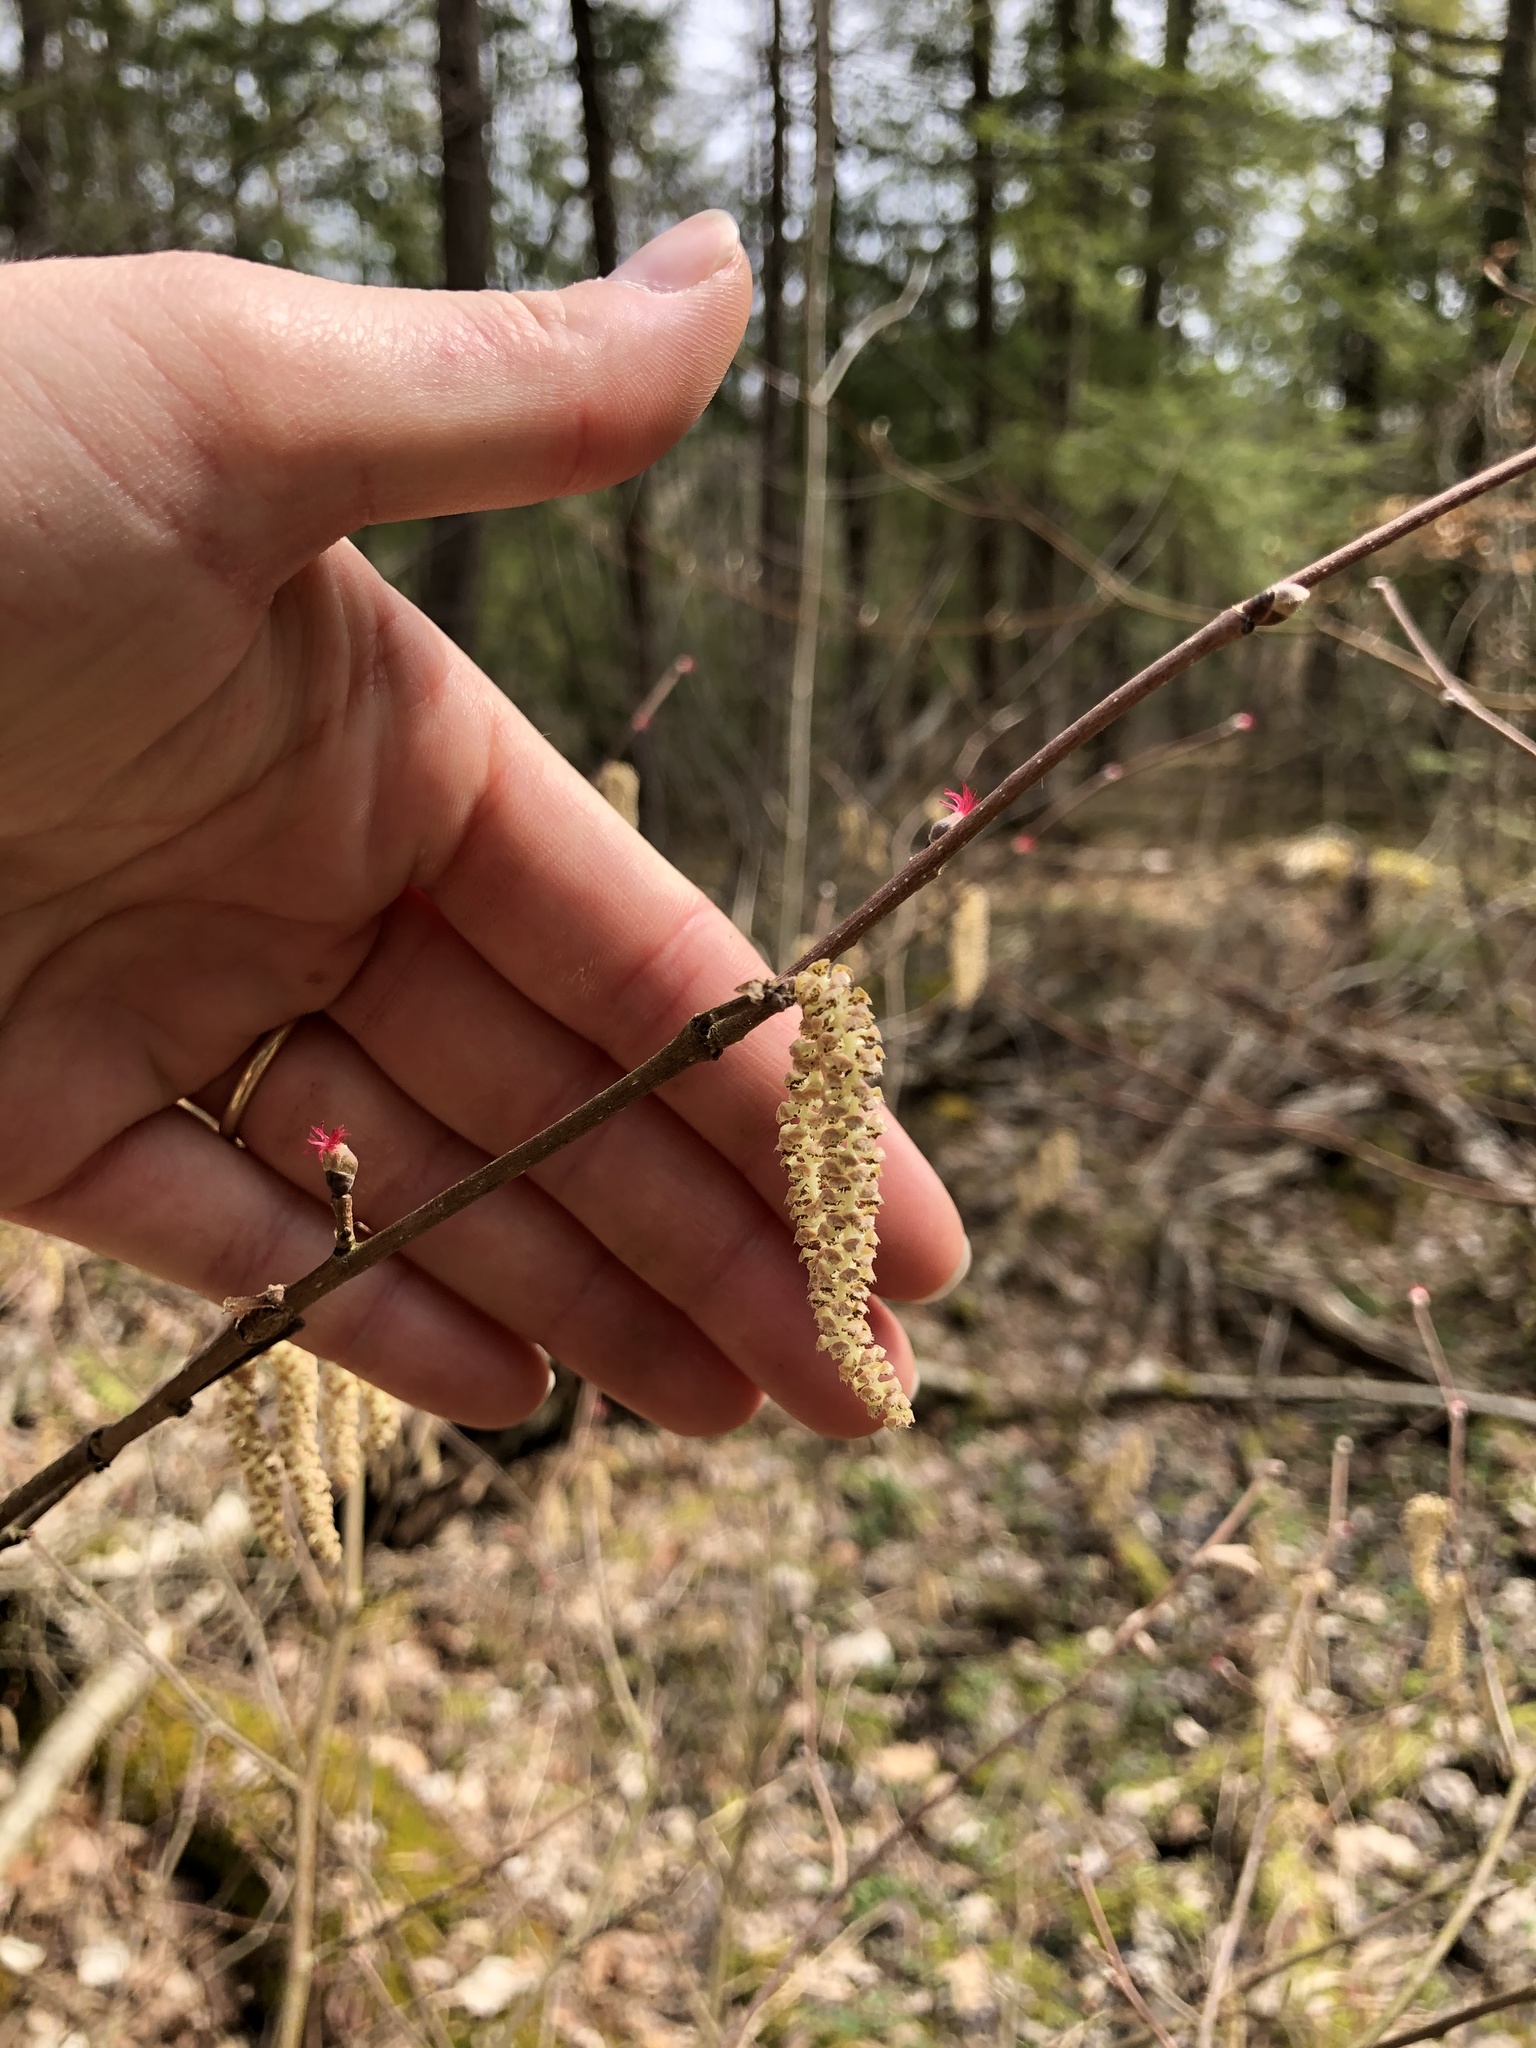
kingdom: Plantae
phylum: Tracheophyta
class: Magnoliopsida
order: Fagales
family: Betulaceae
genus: Corylus
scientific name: Corylus cornuta
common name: Beaked hazel
